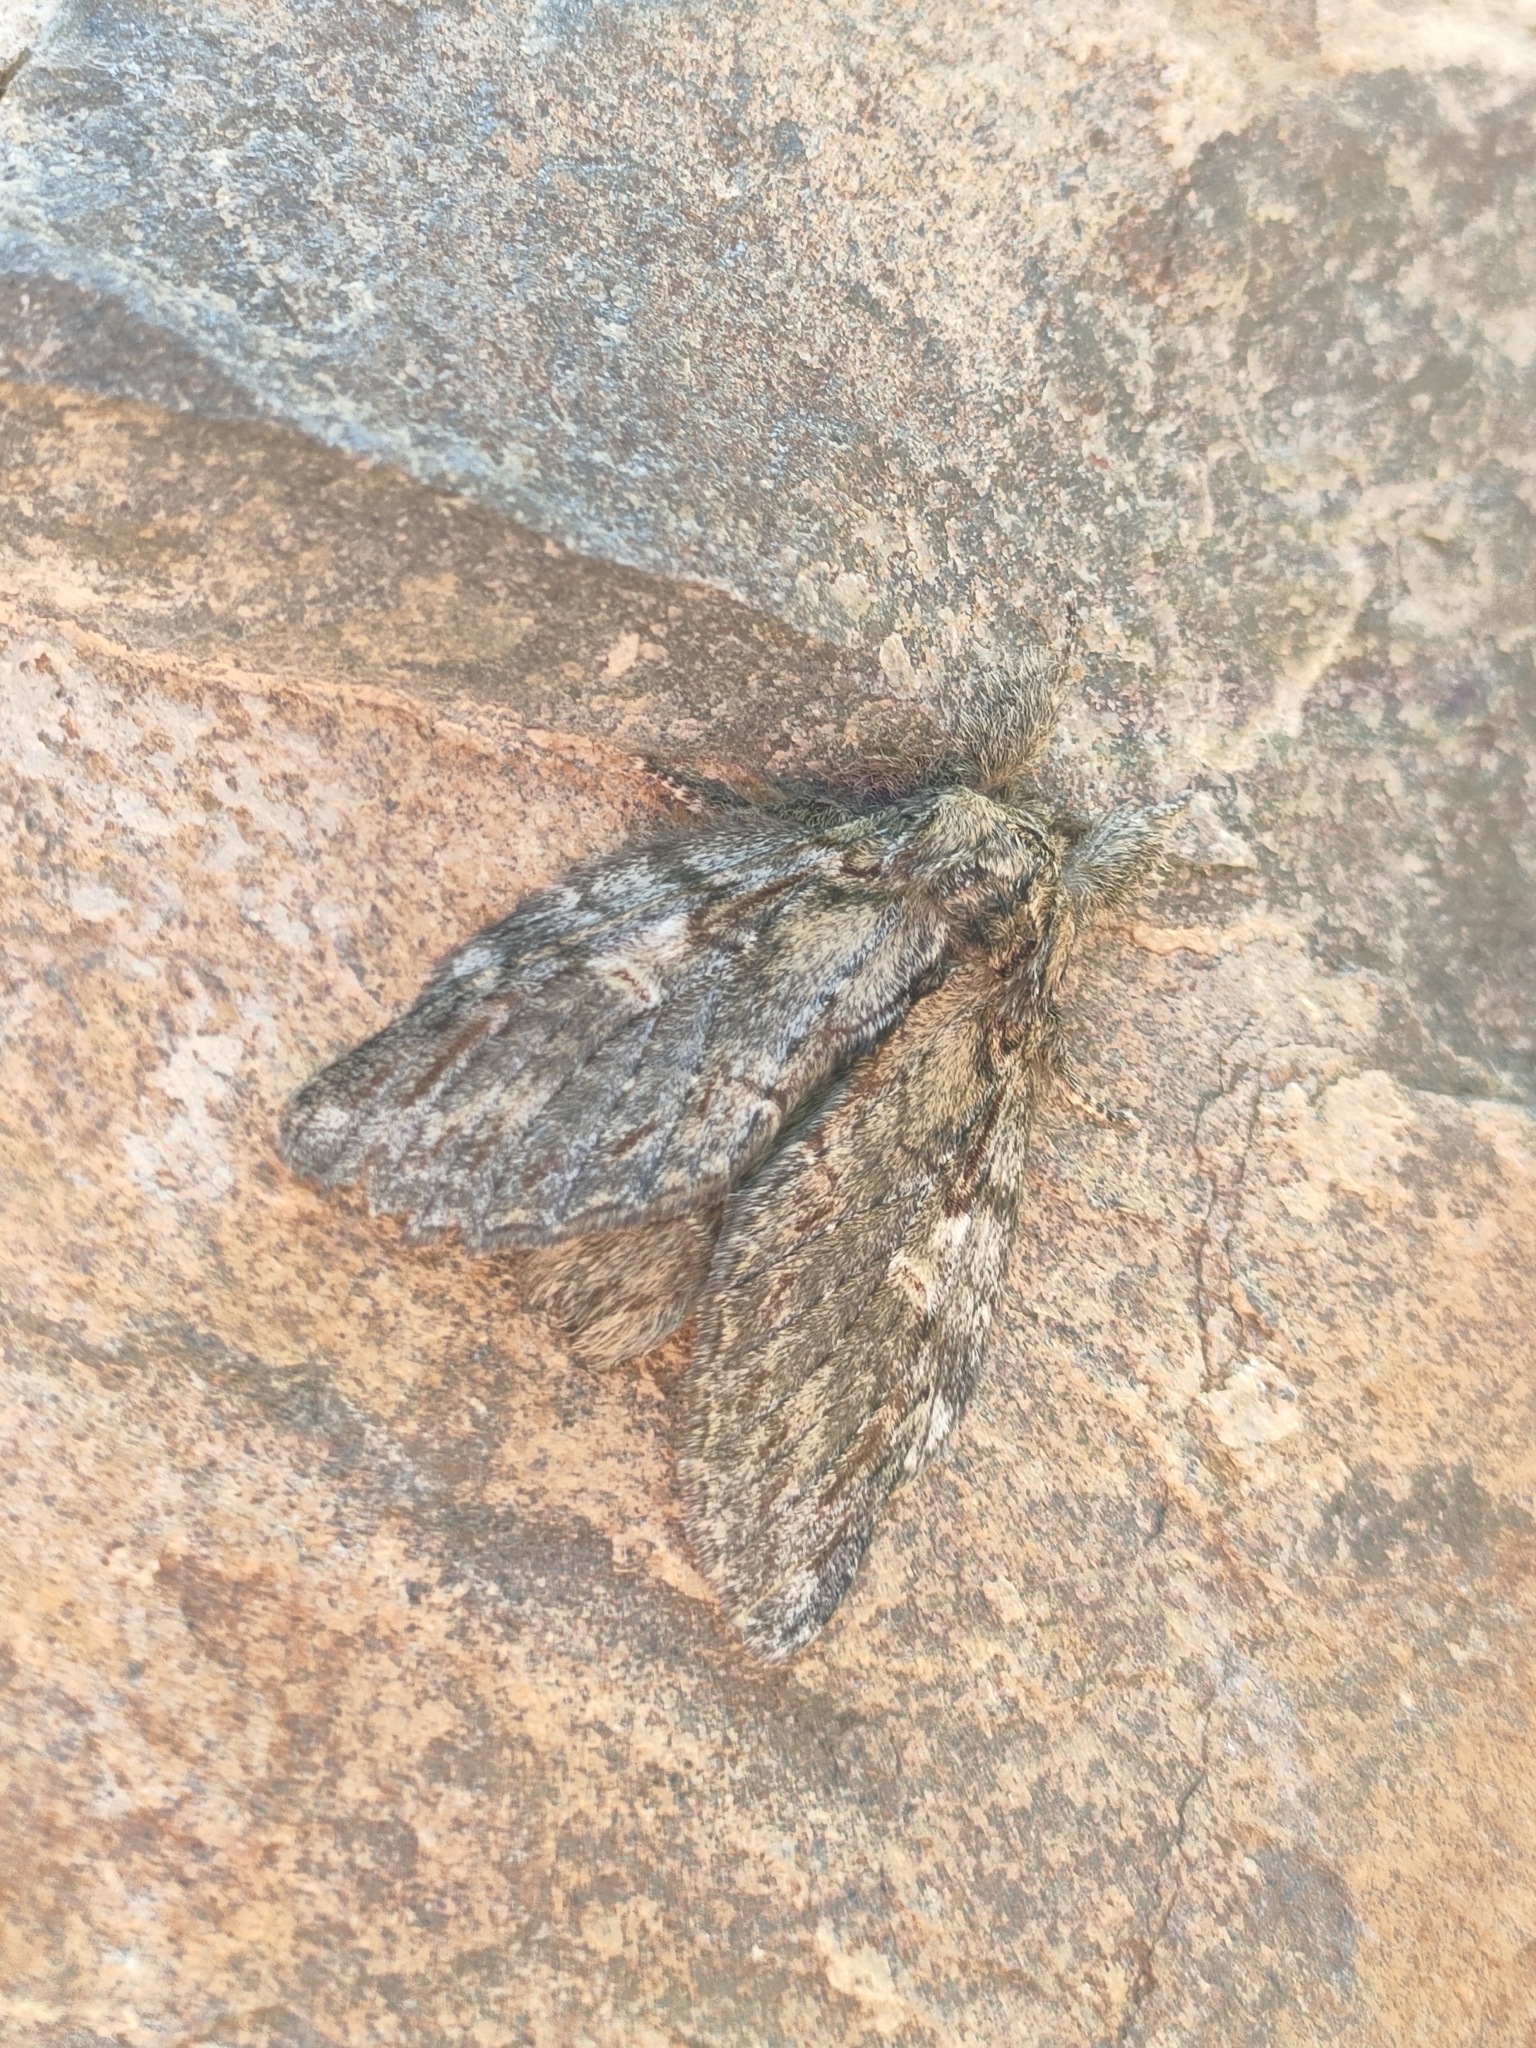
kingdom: Animalia
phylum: Arthropoda
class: Insecta
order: Lepidoptera
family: Notodontidae
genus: Peridea
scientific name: Peridea anceps
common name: Great prominent
